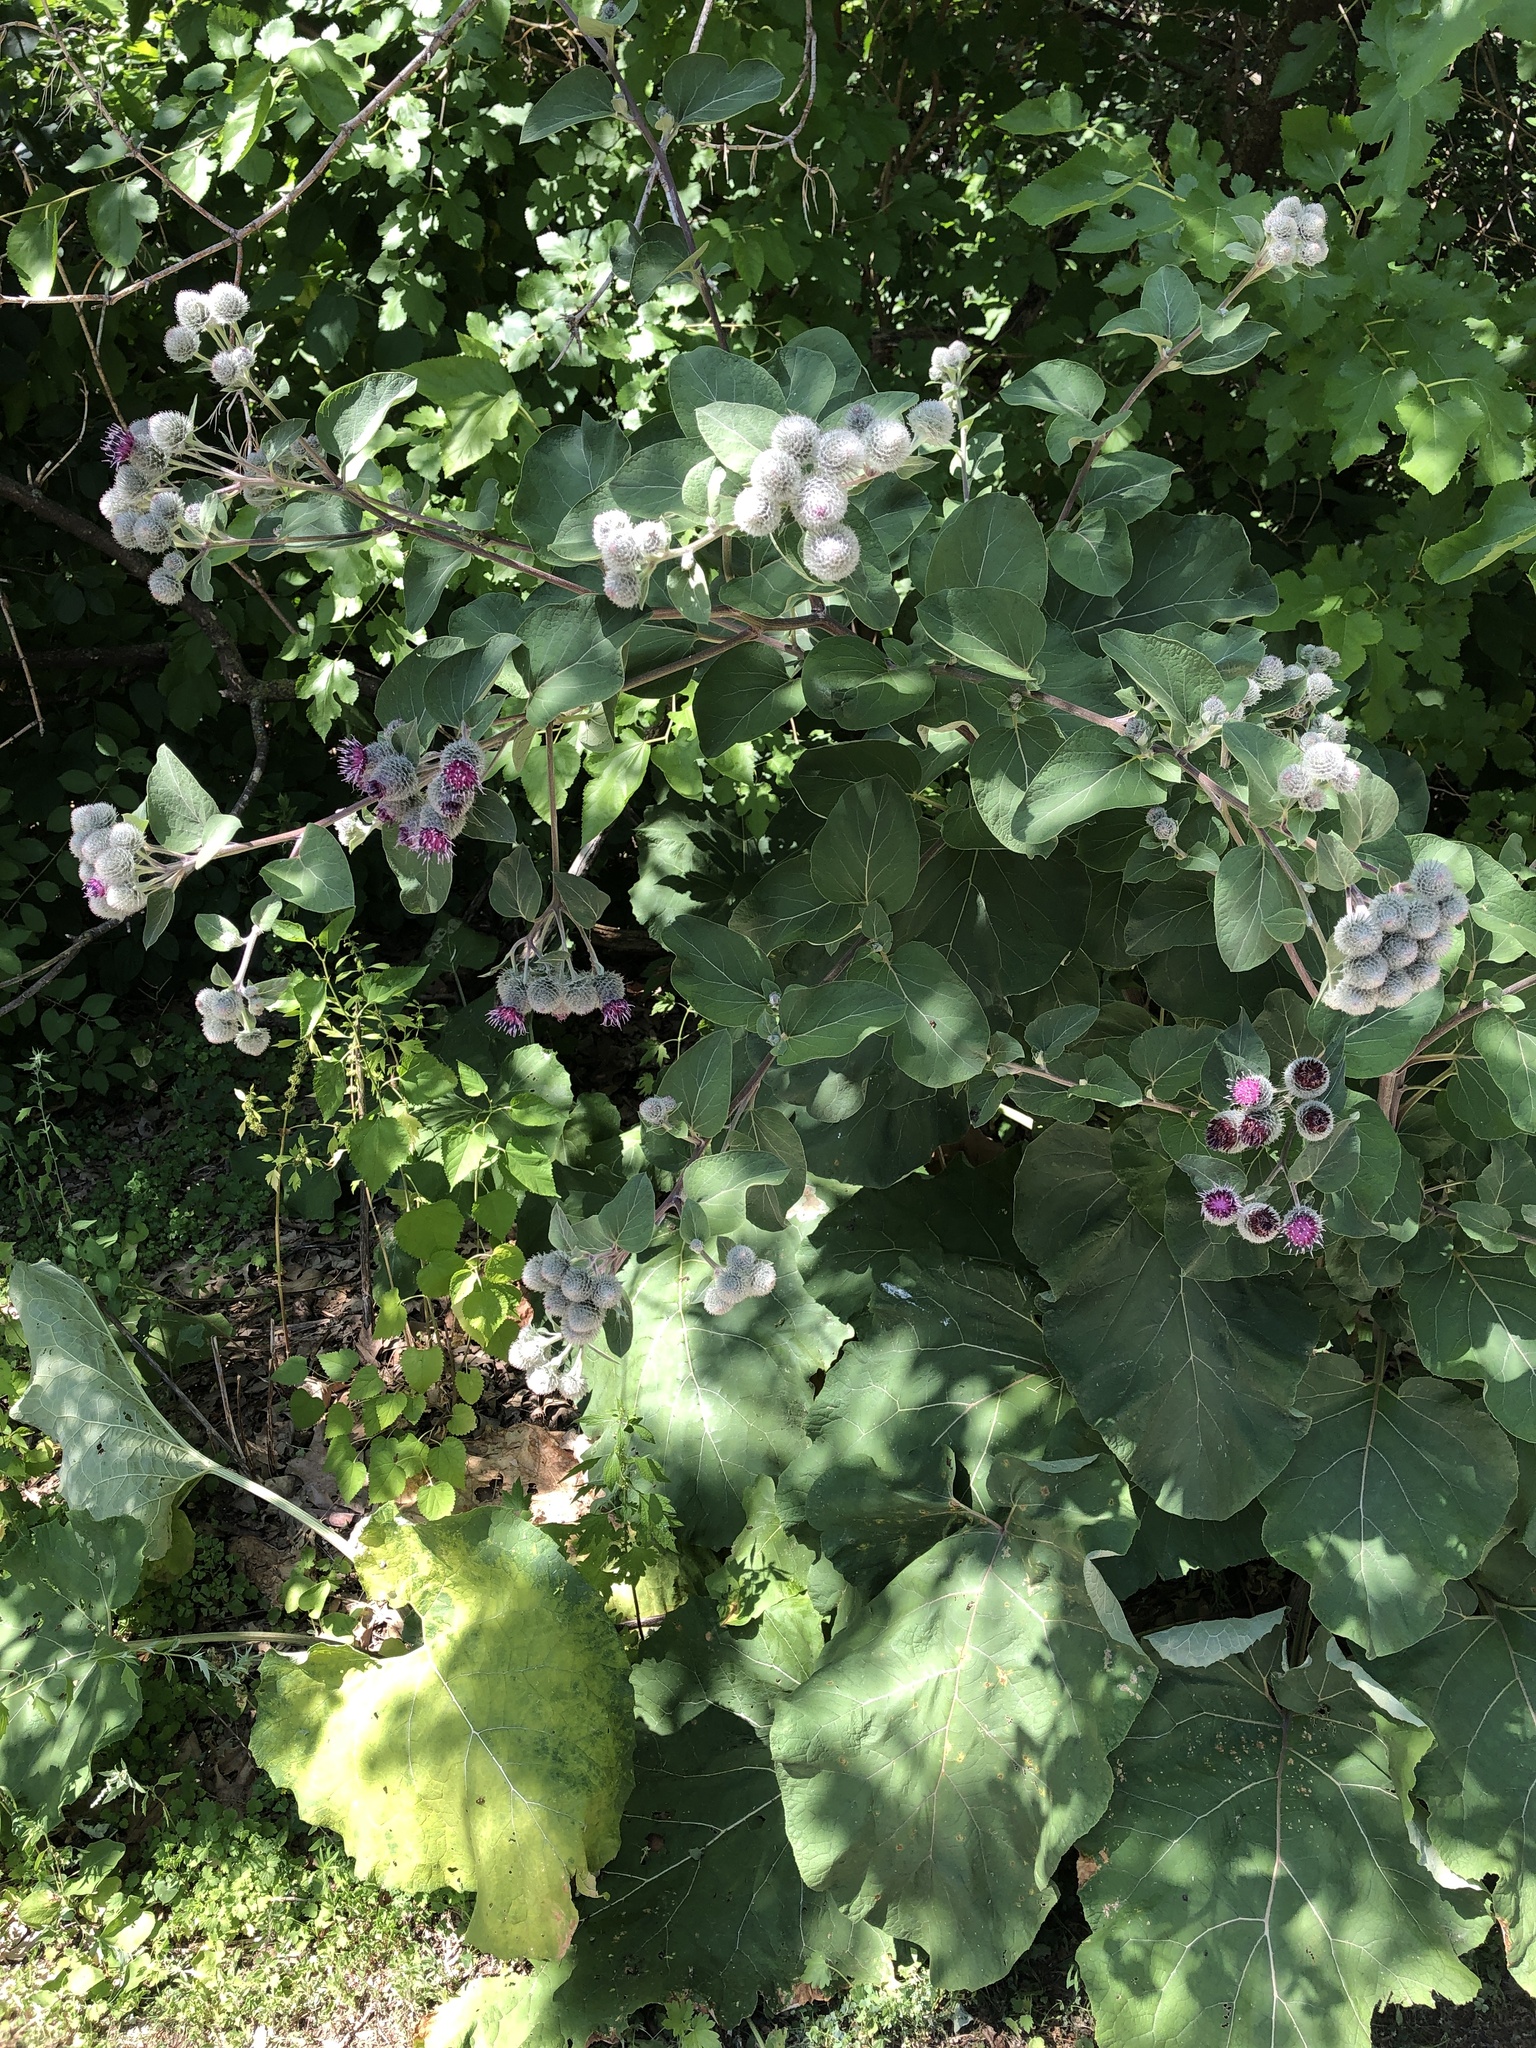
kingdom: Plantae
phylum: Tracheophyta
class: Magnoliopsida
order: Asterales
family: Asteraceae
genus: Arctium
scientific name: Arctium tomentosum
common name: Woolly burdock
